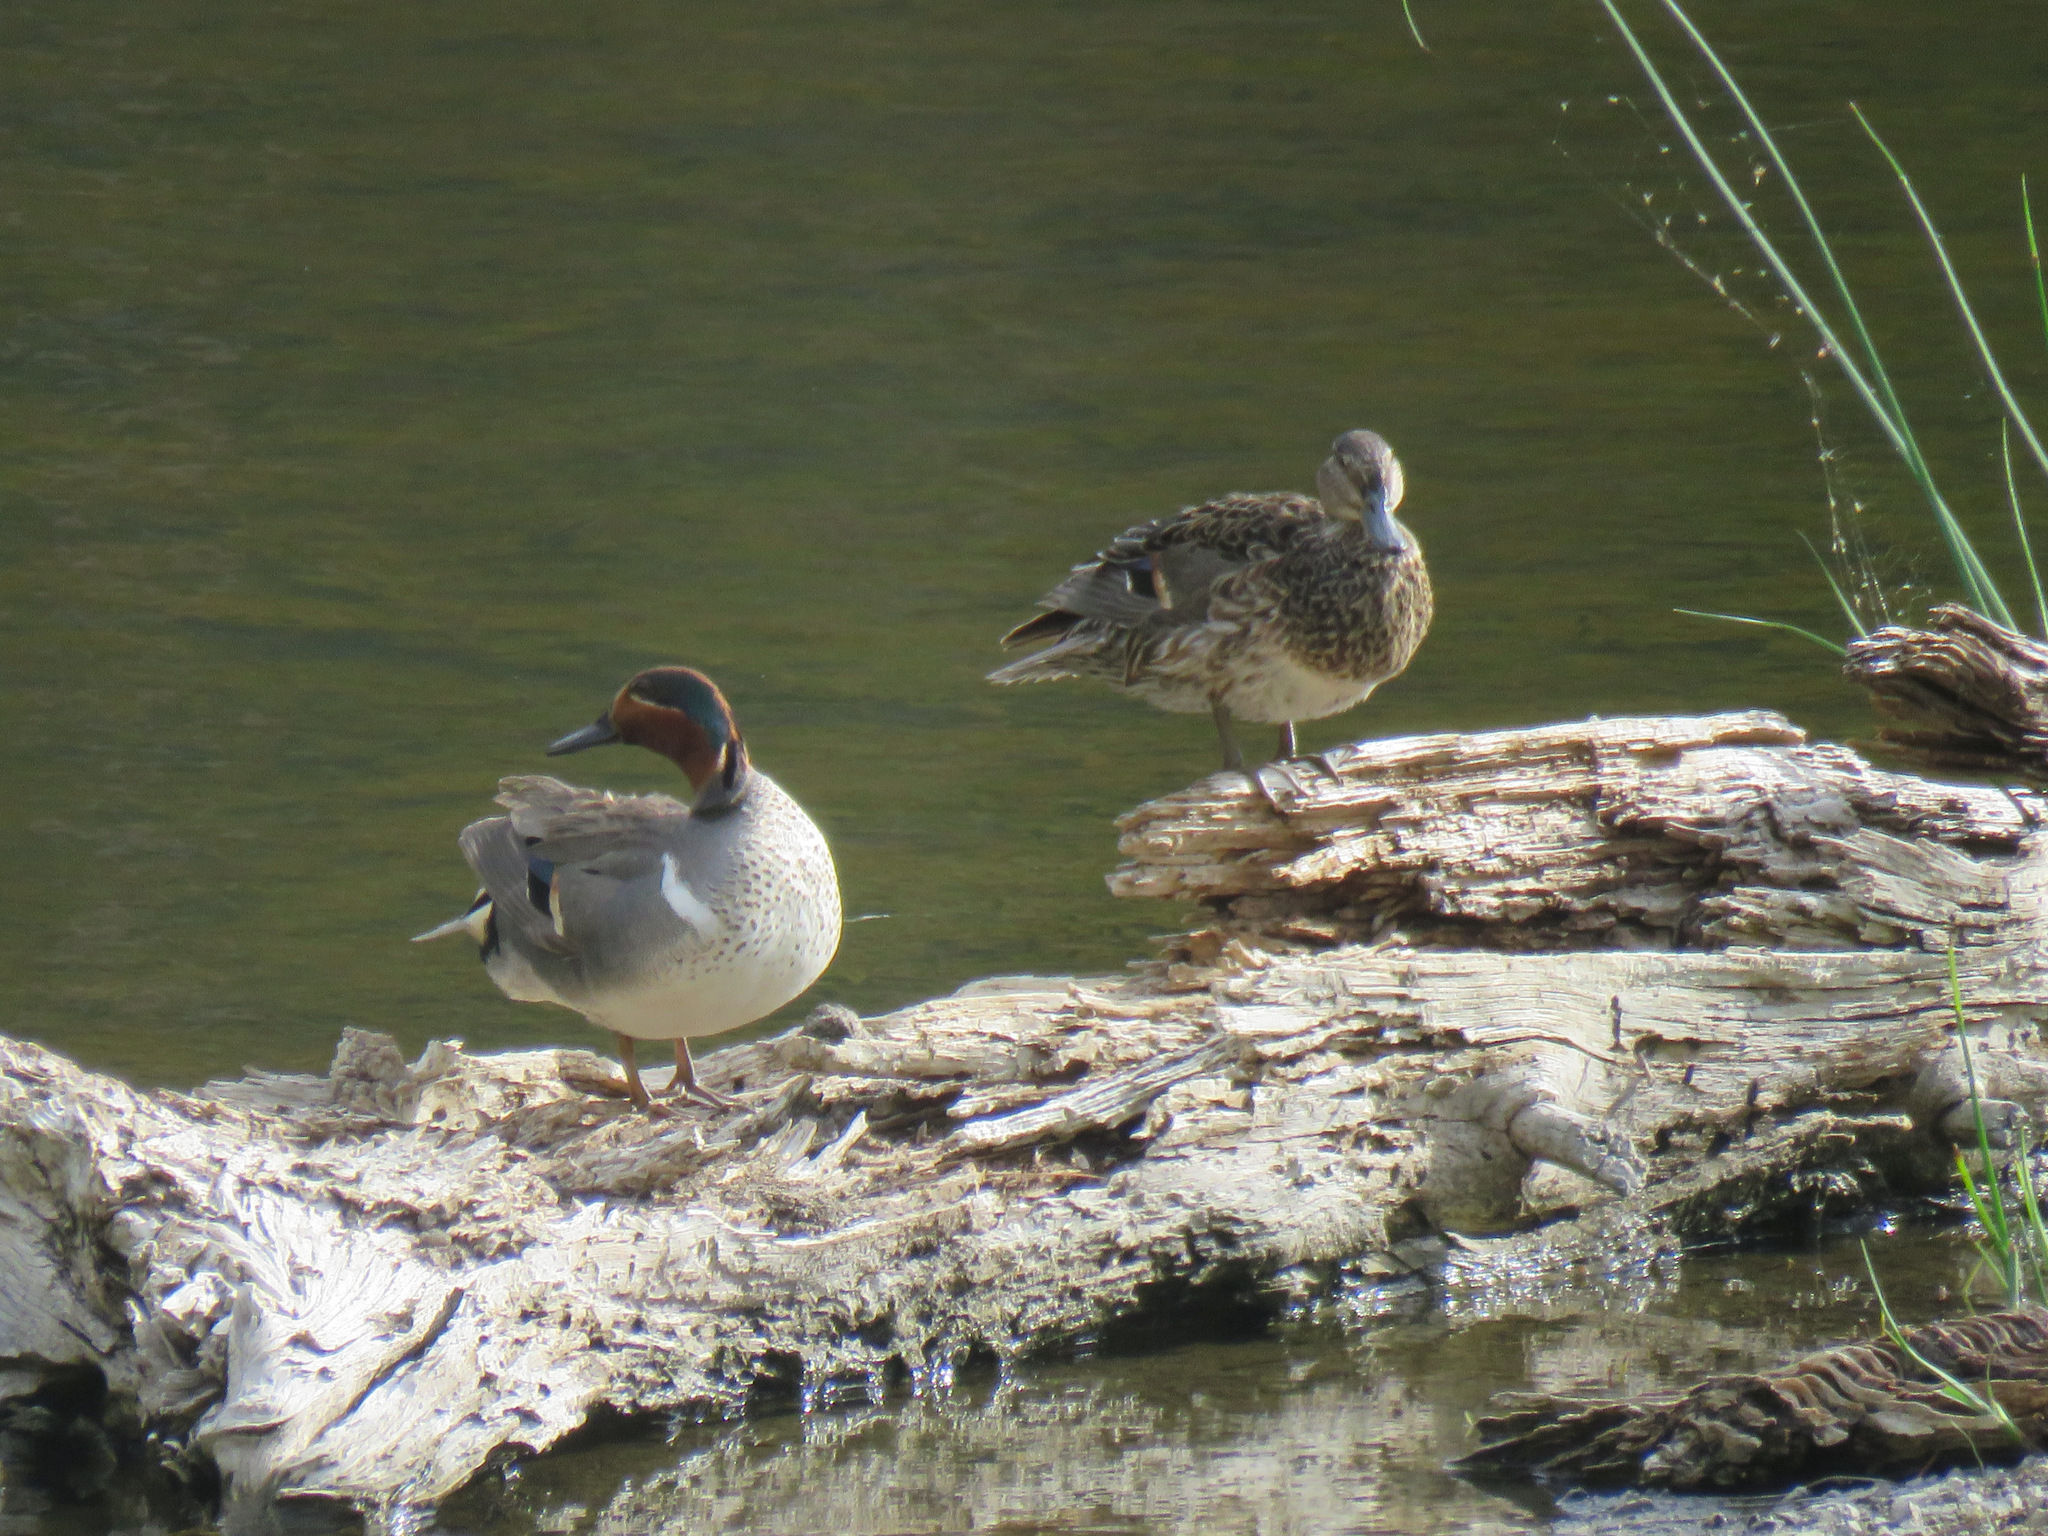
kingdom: Animalia
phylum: Chordata
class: Aves
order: Anseriformes
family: Anatidae
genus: Anas
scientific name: Anas crecca
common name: Eurasian teal
